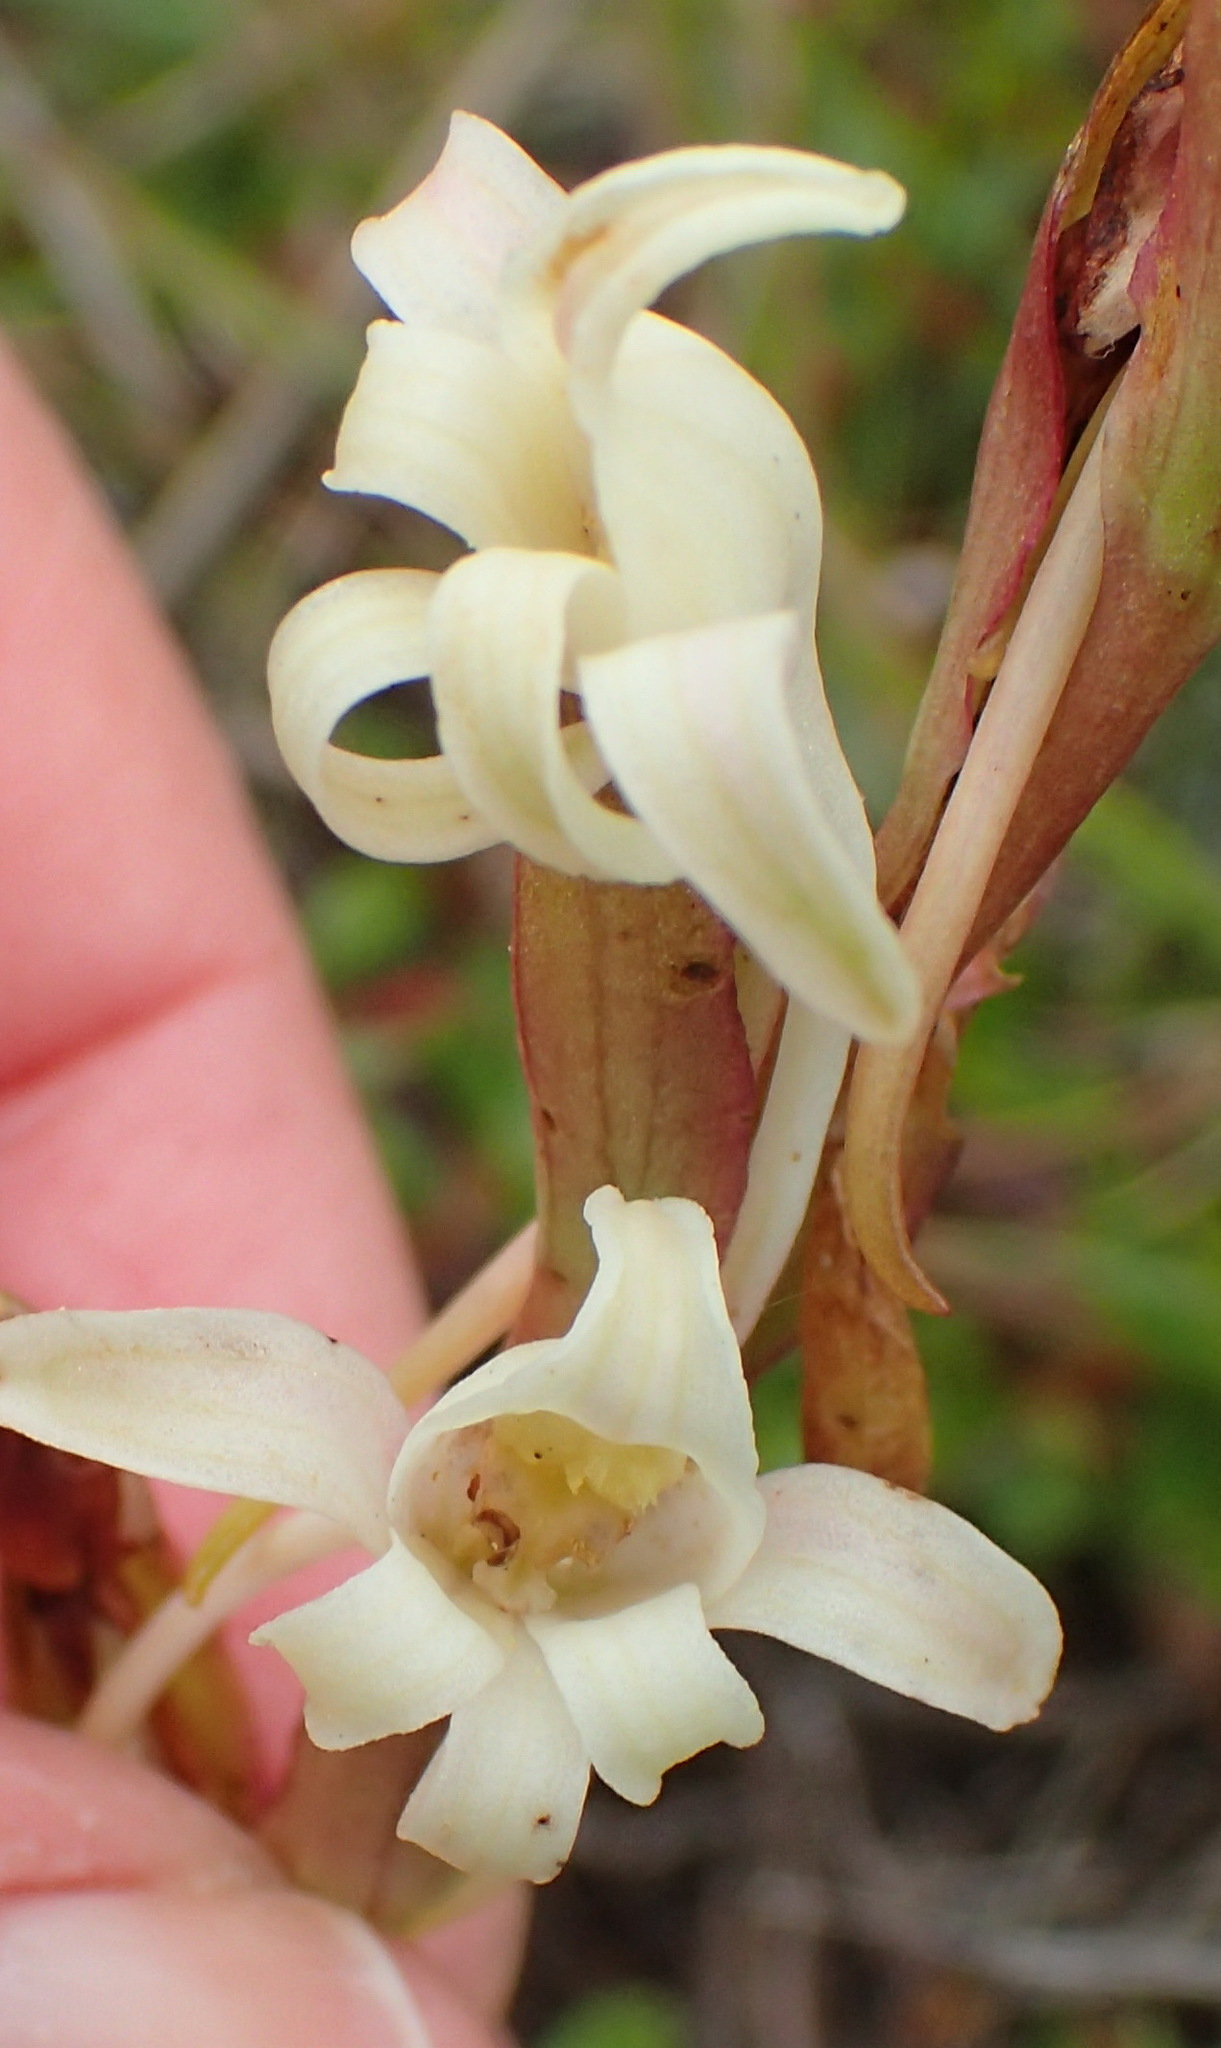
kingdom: Plantae
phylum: Tracheophyta
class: Liliopsida
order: Asparagales
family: Orchidaceae
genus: Satyrium
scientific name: Satyrium stenopetalum
